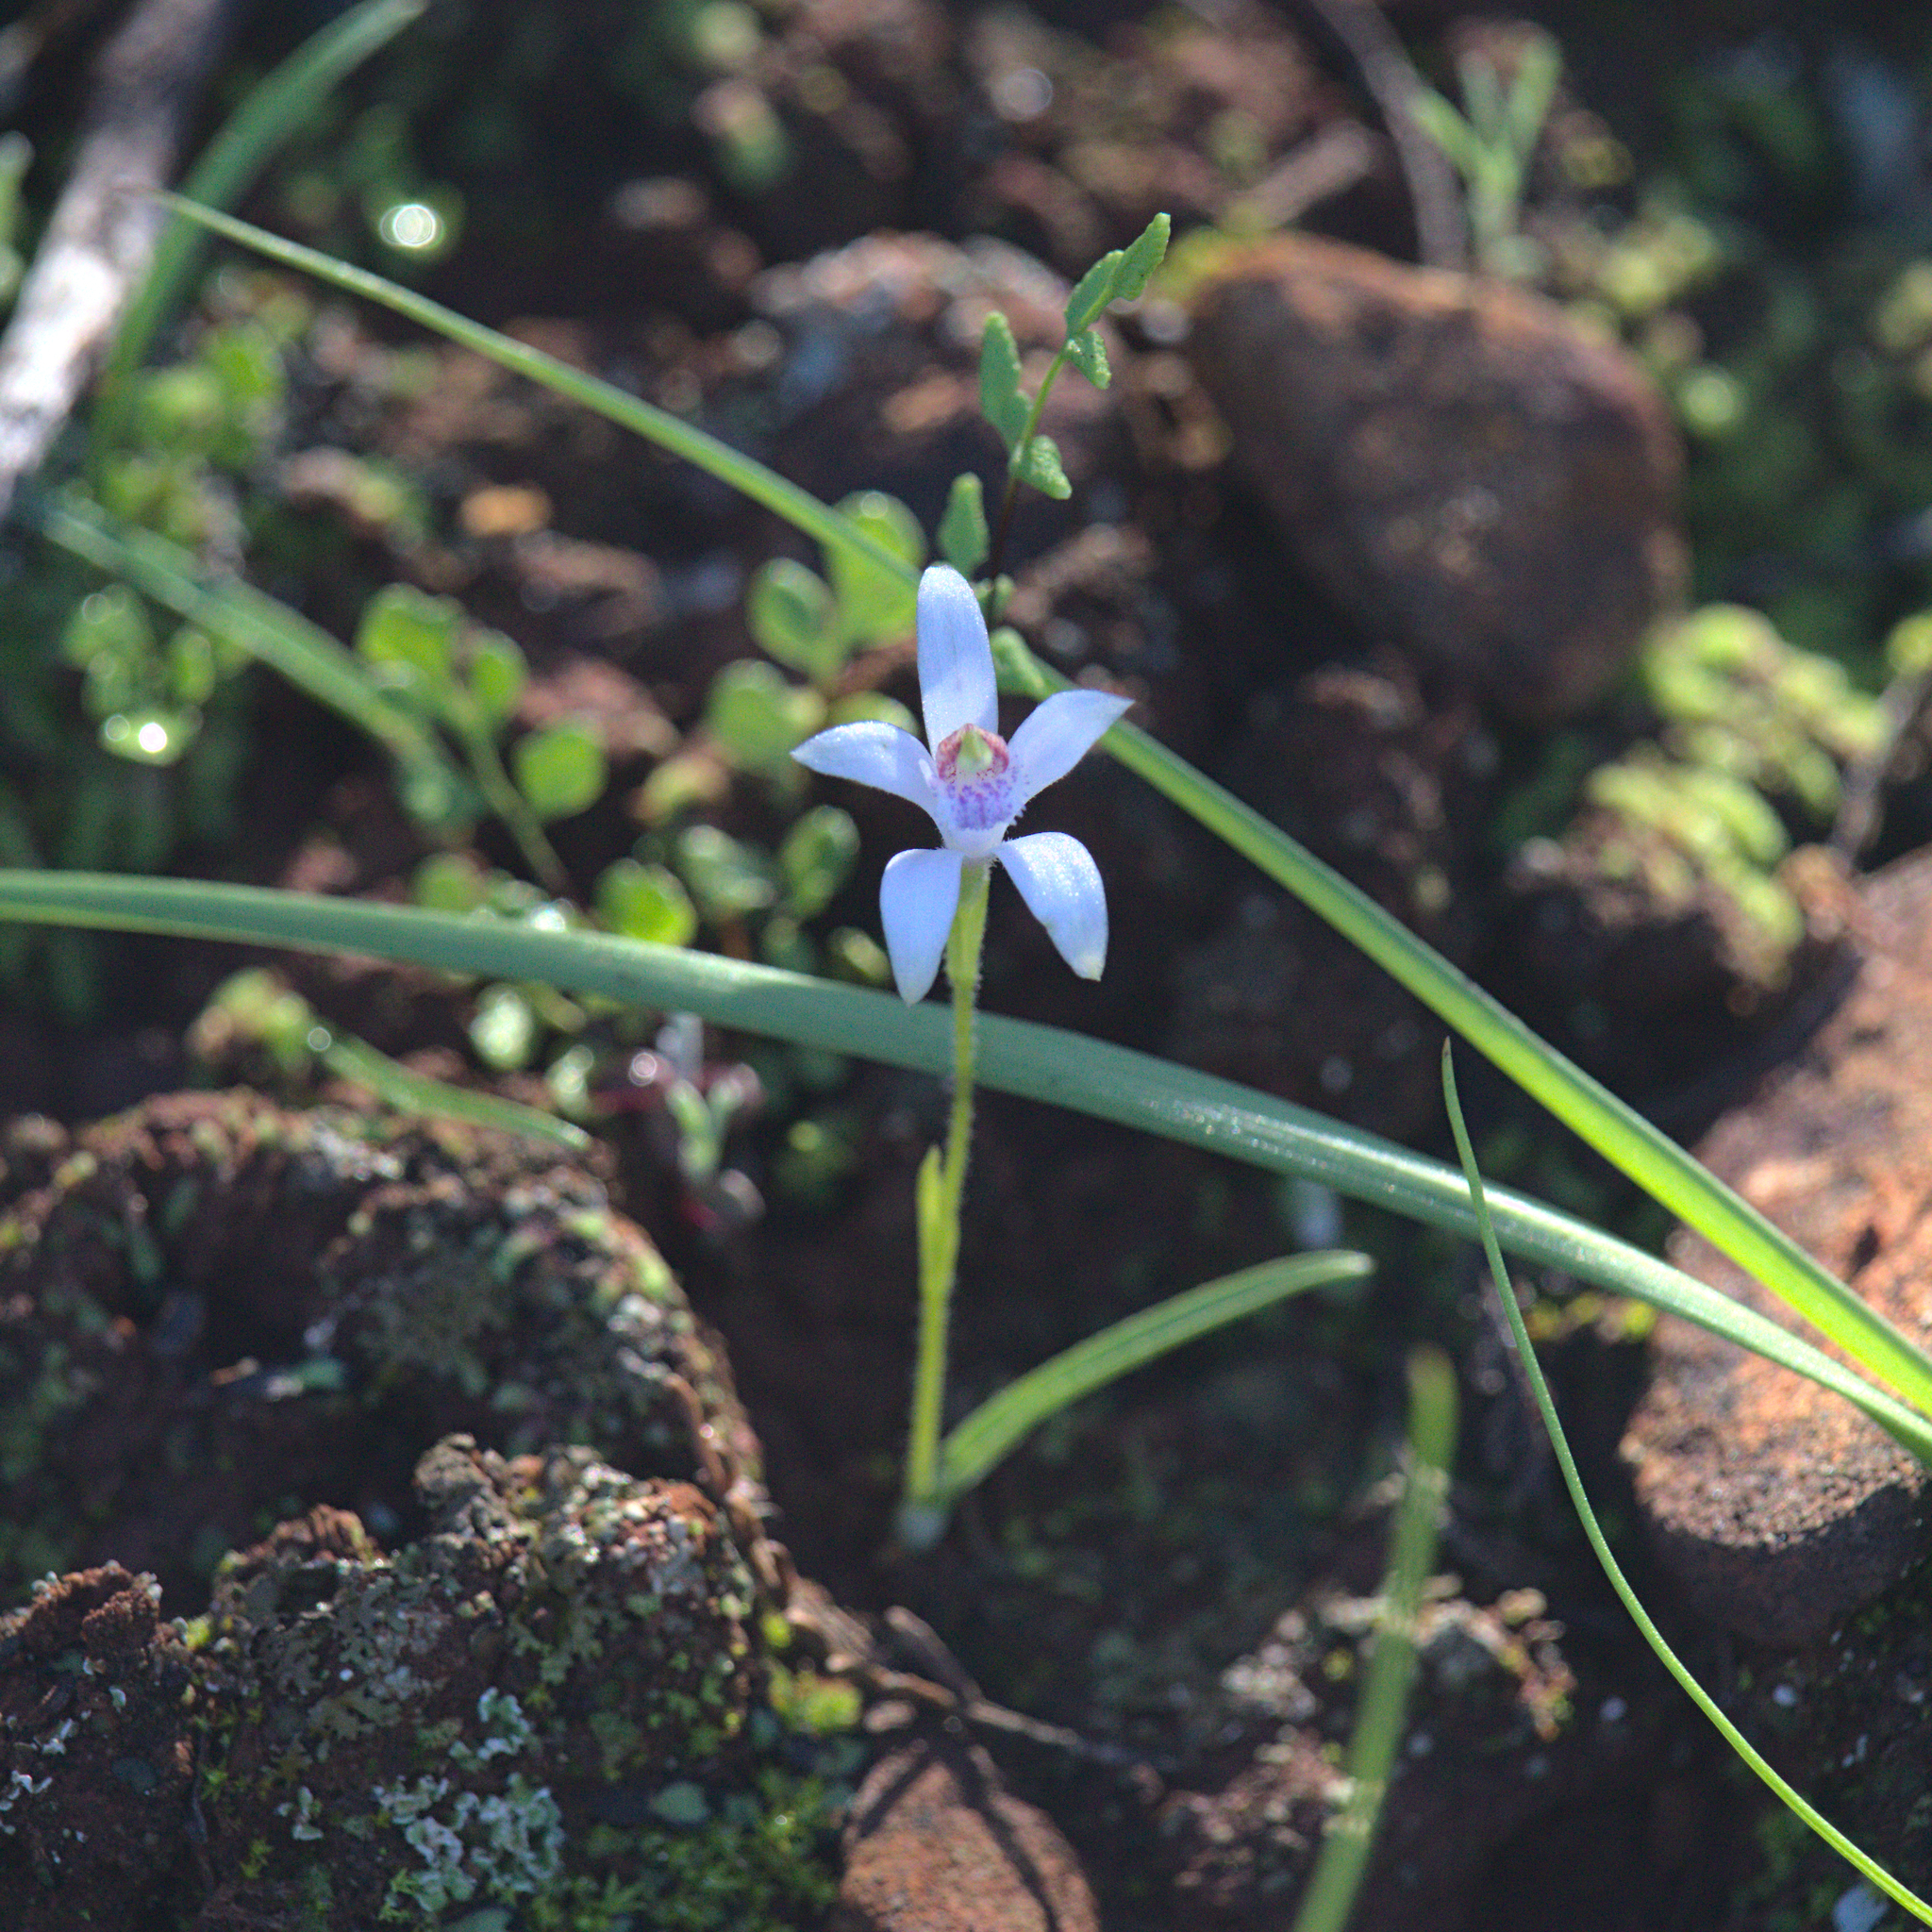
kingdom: Plantae
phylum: Tracheophyta
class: Liliopsida
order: Asparagales
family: Orchidaceae
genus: Pheladenia
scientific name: Pheladenia deformis
